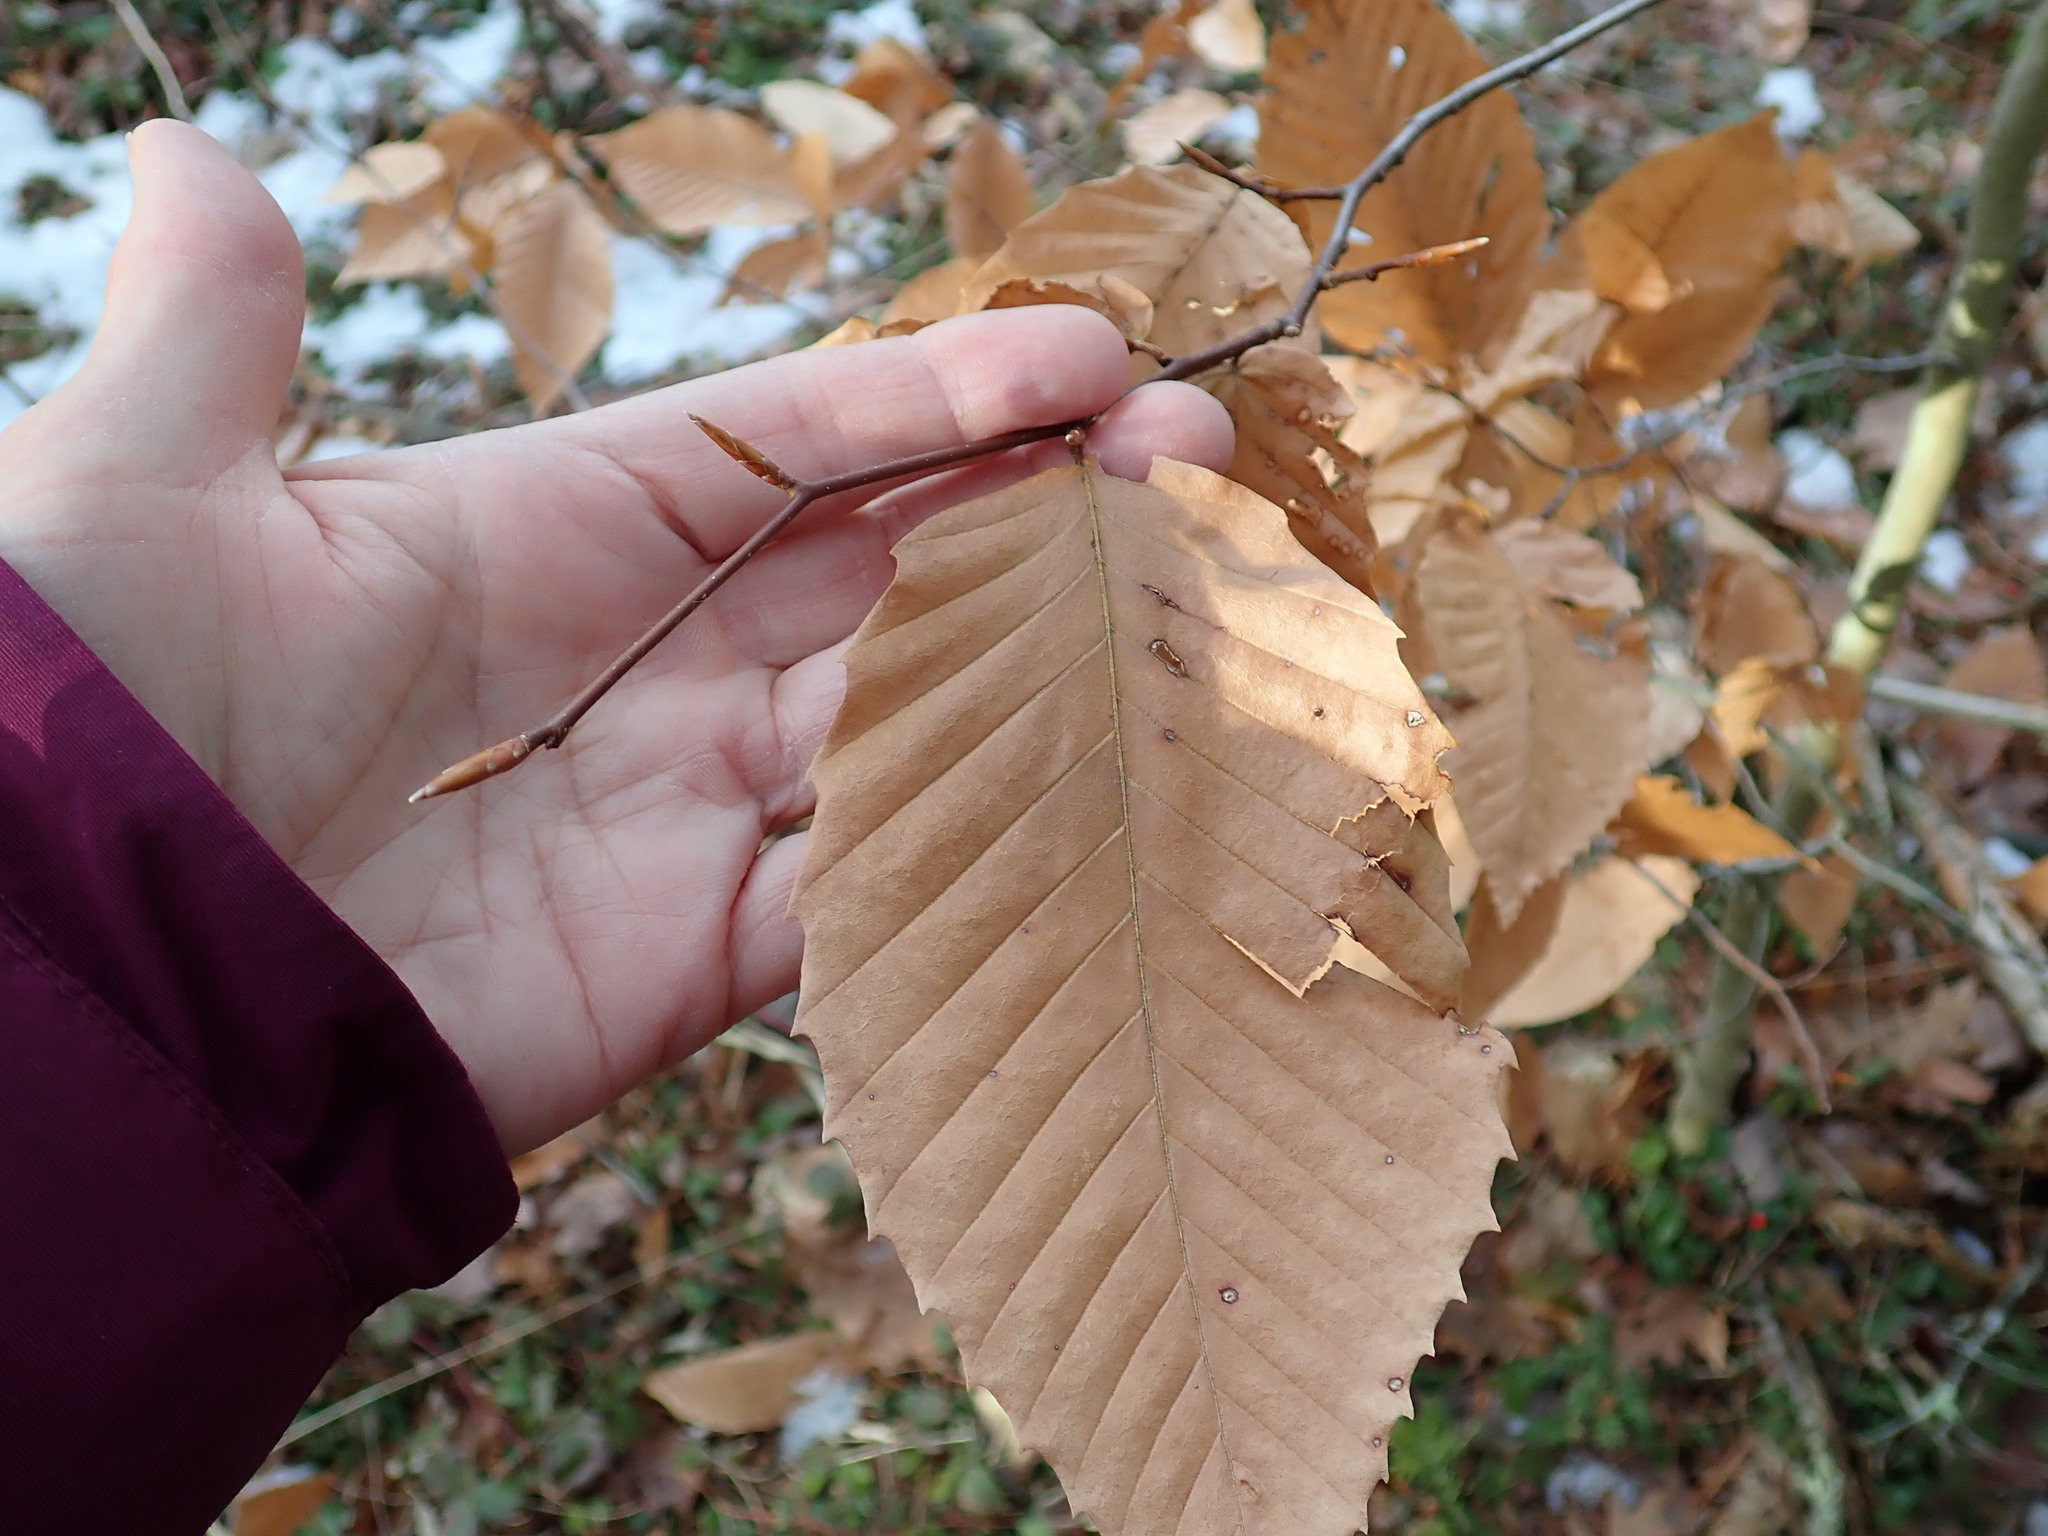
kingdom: Plantae
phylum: Tracheophyta
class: Magnoliopsida
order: Fagales
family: Fagaceae
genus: Fagus
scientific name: Fagus grandifolia
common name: American beech
